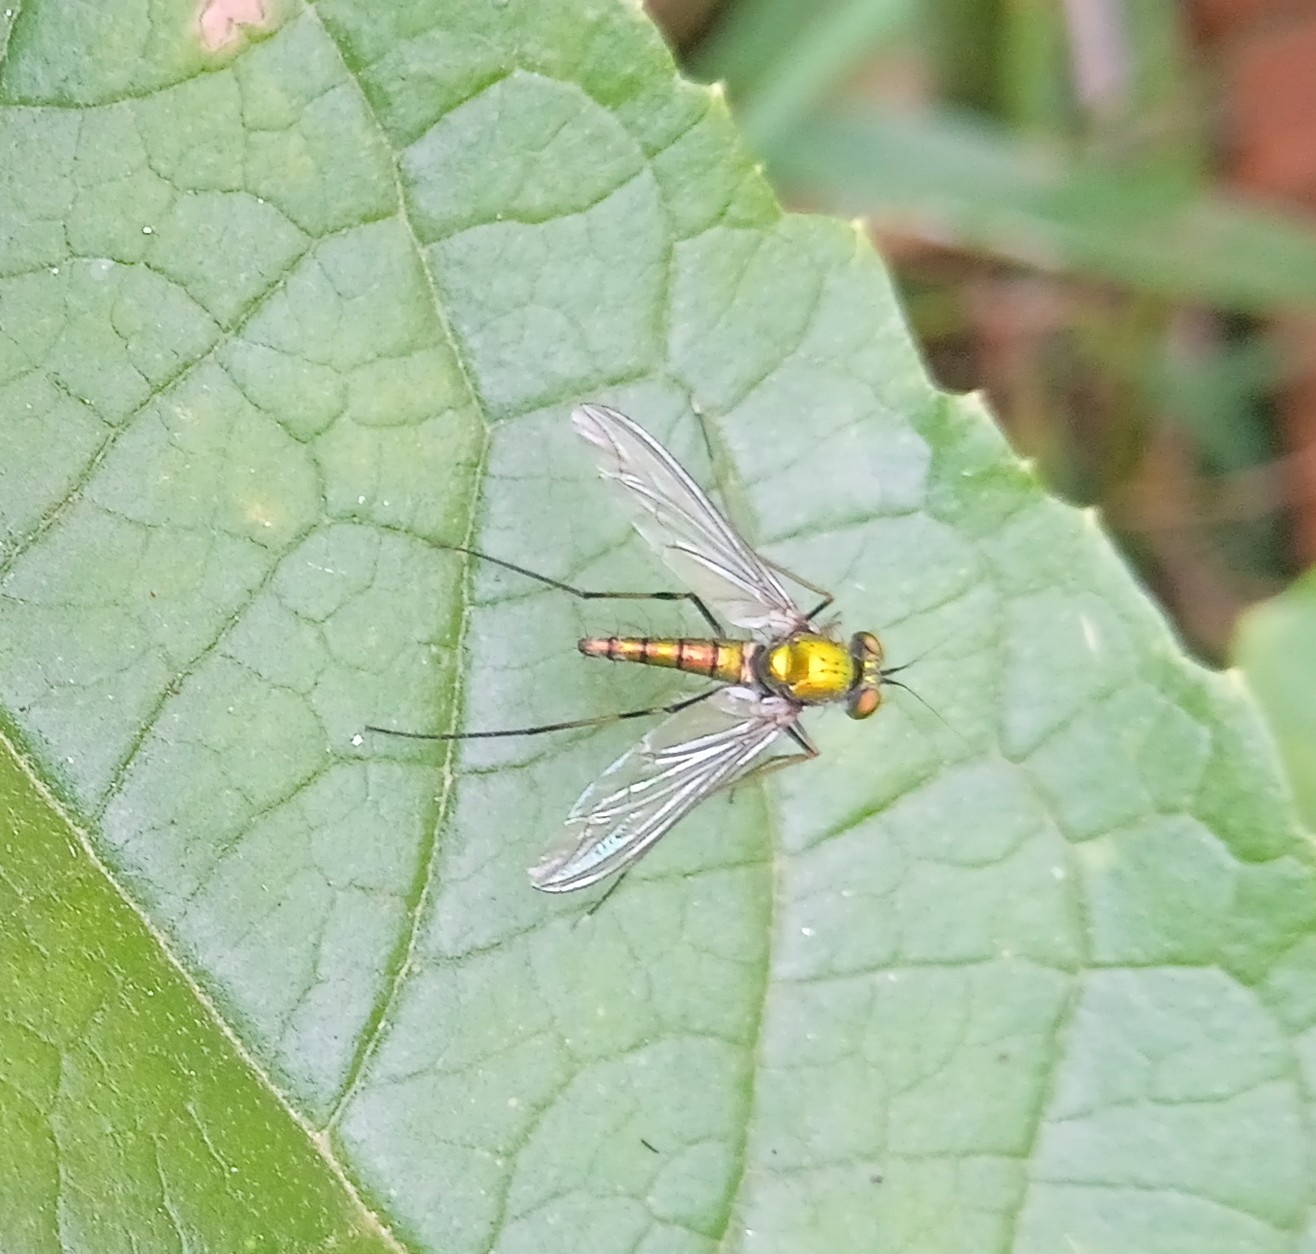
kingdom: Animalia
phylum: Arthropoda
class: Insecta
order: Diptera
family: Dolichopodidae
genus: Chrysosoma
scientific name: Chrysosoma leucopogon
